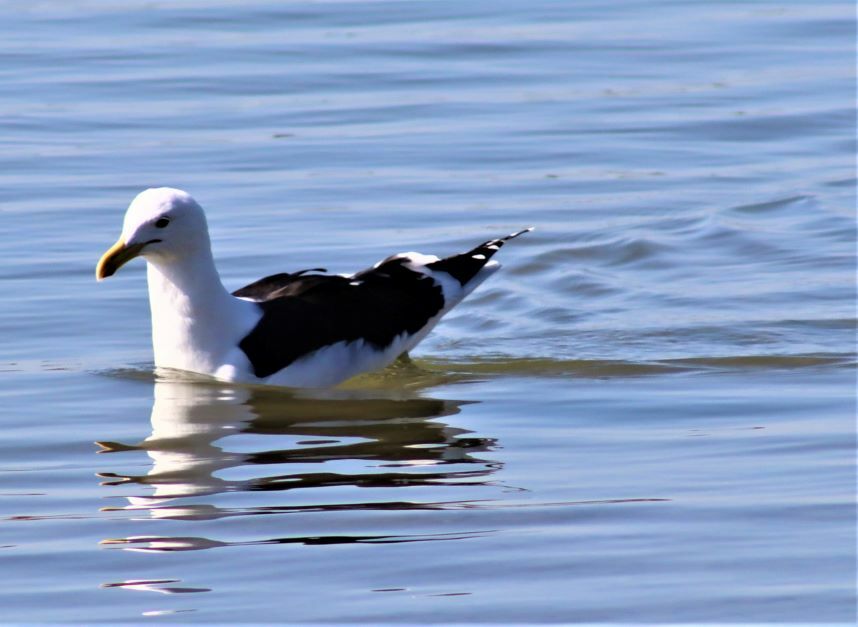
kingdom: Animalia
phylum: Chordata
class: Aves
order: Charadriiformes
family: Laridae
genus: Larus
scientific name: Larus dominicanus
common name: Kelp gull
